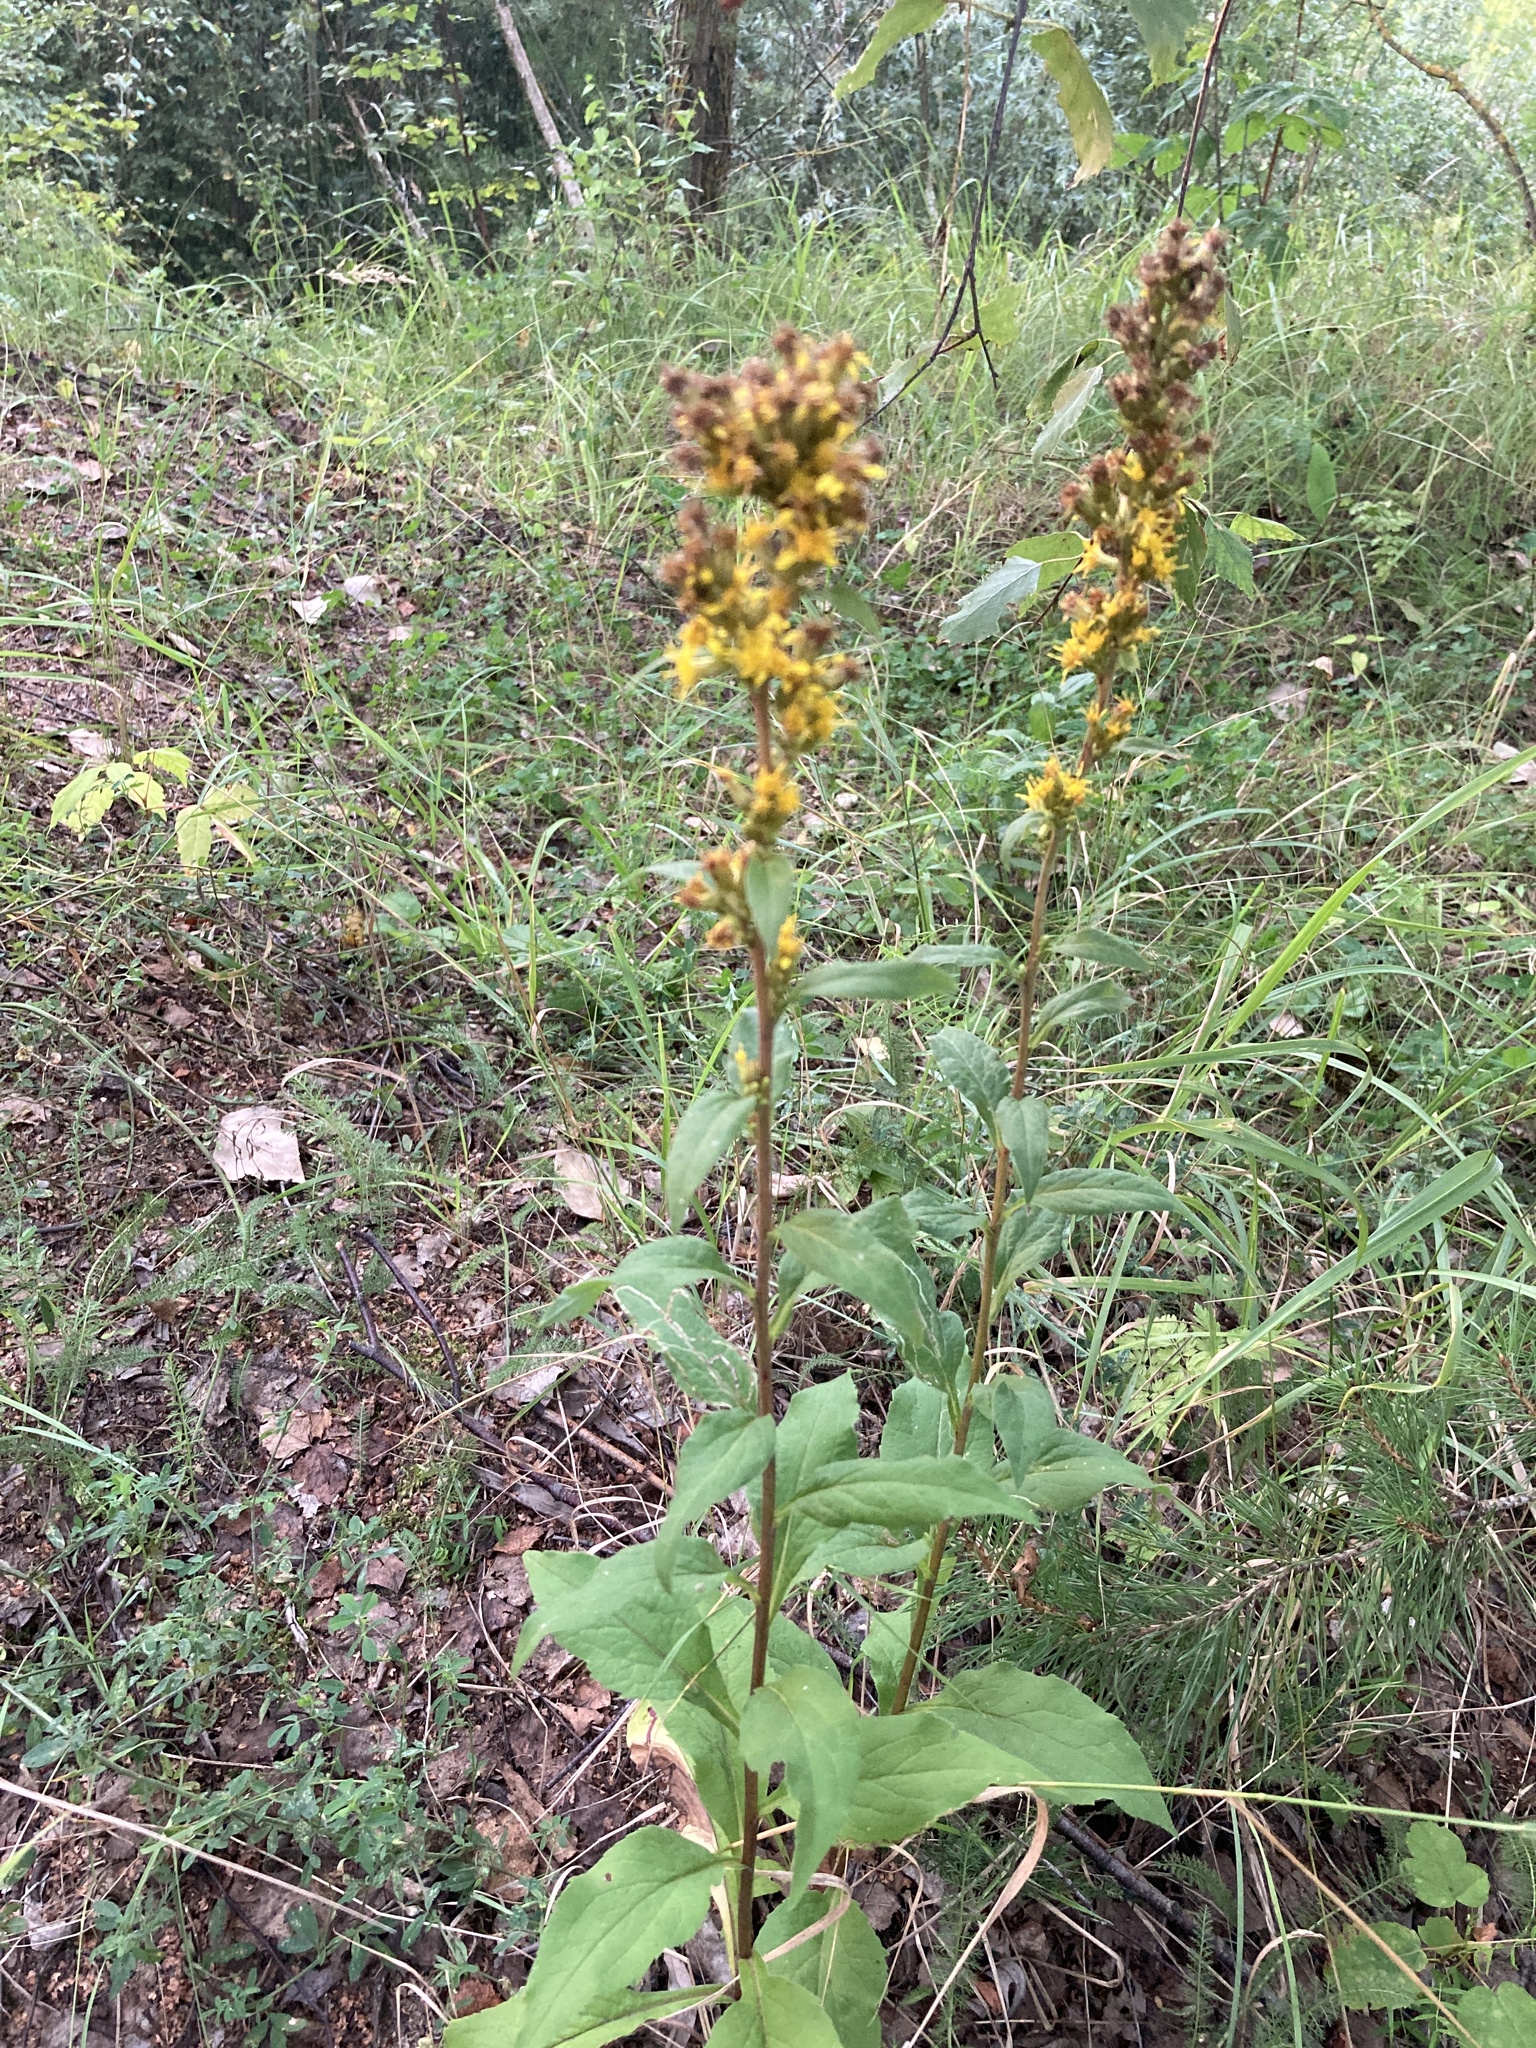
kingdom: Plantae
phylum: Tracheophyta
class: Magnoliopsida
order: Asterales
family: Asteraceae
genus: Solidago
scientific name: Solidago virgaurea
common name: Goldenrod
